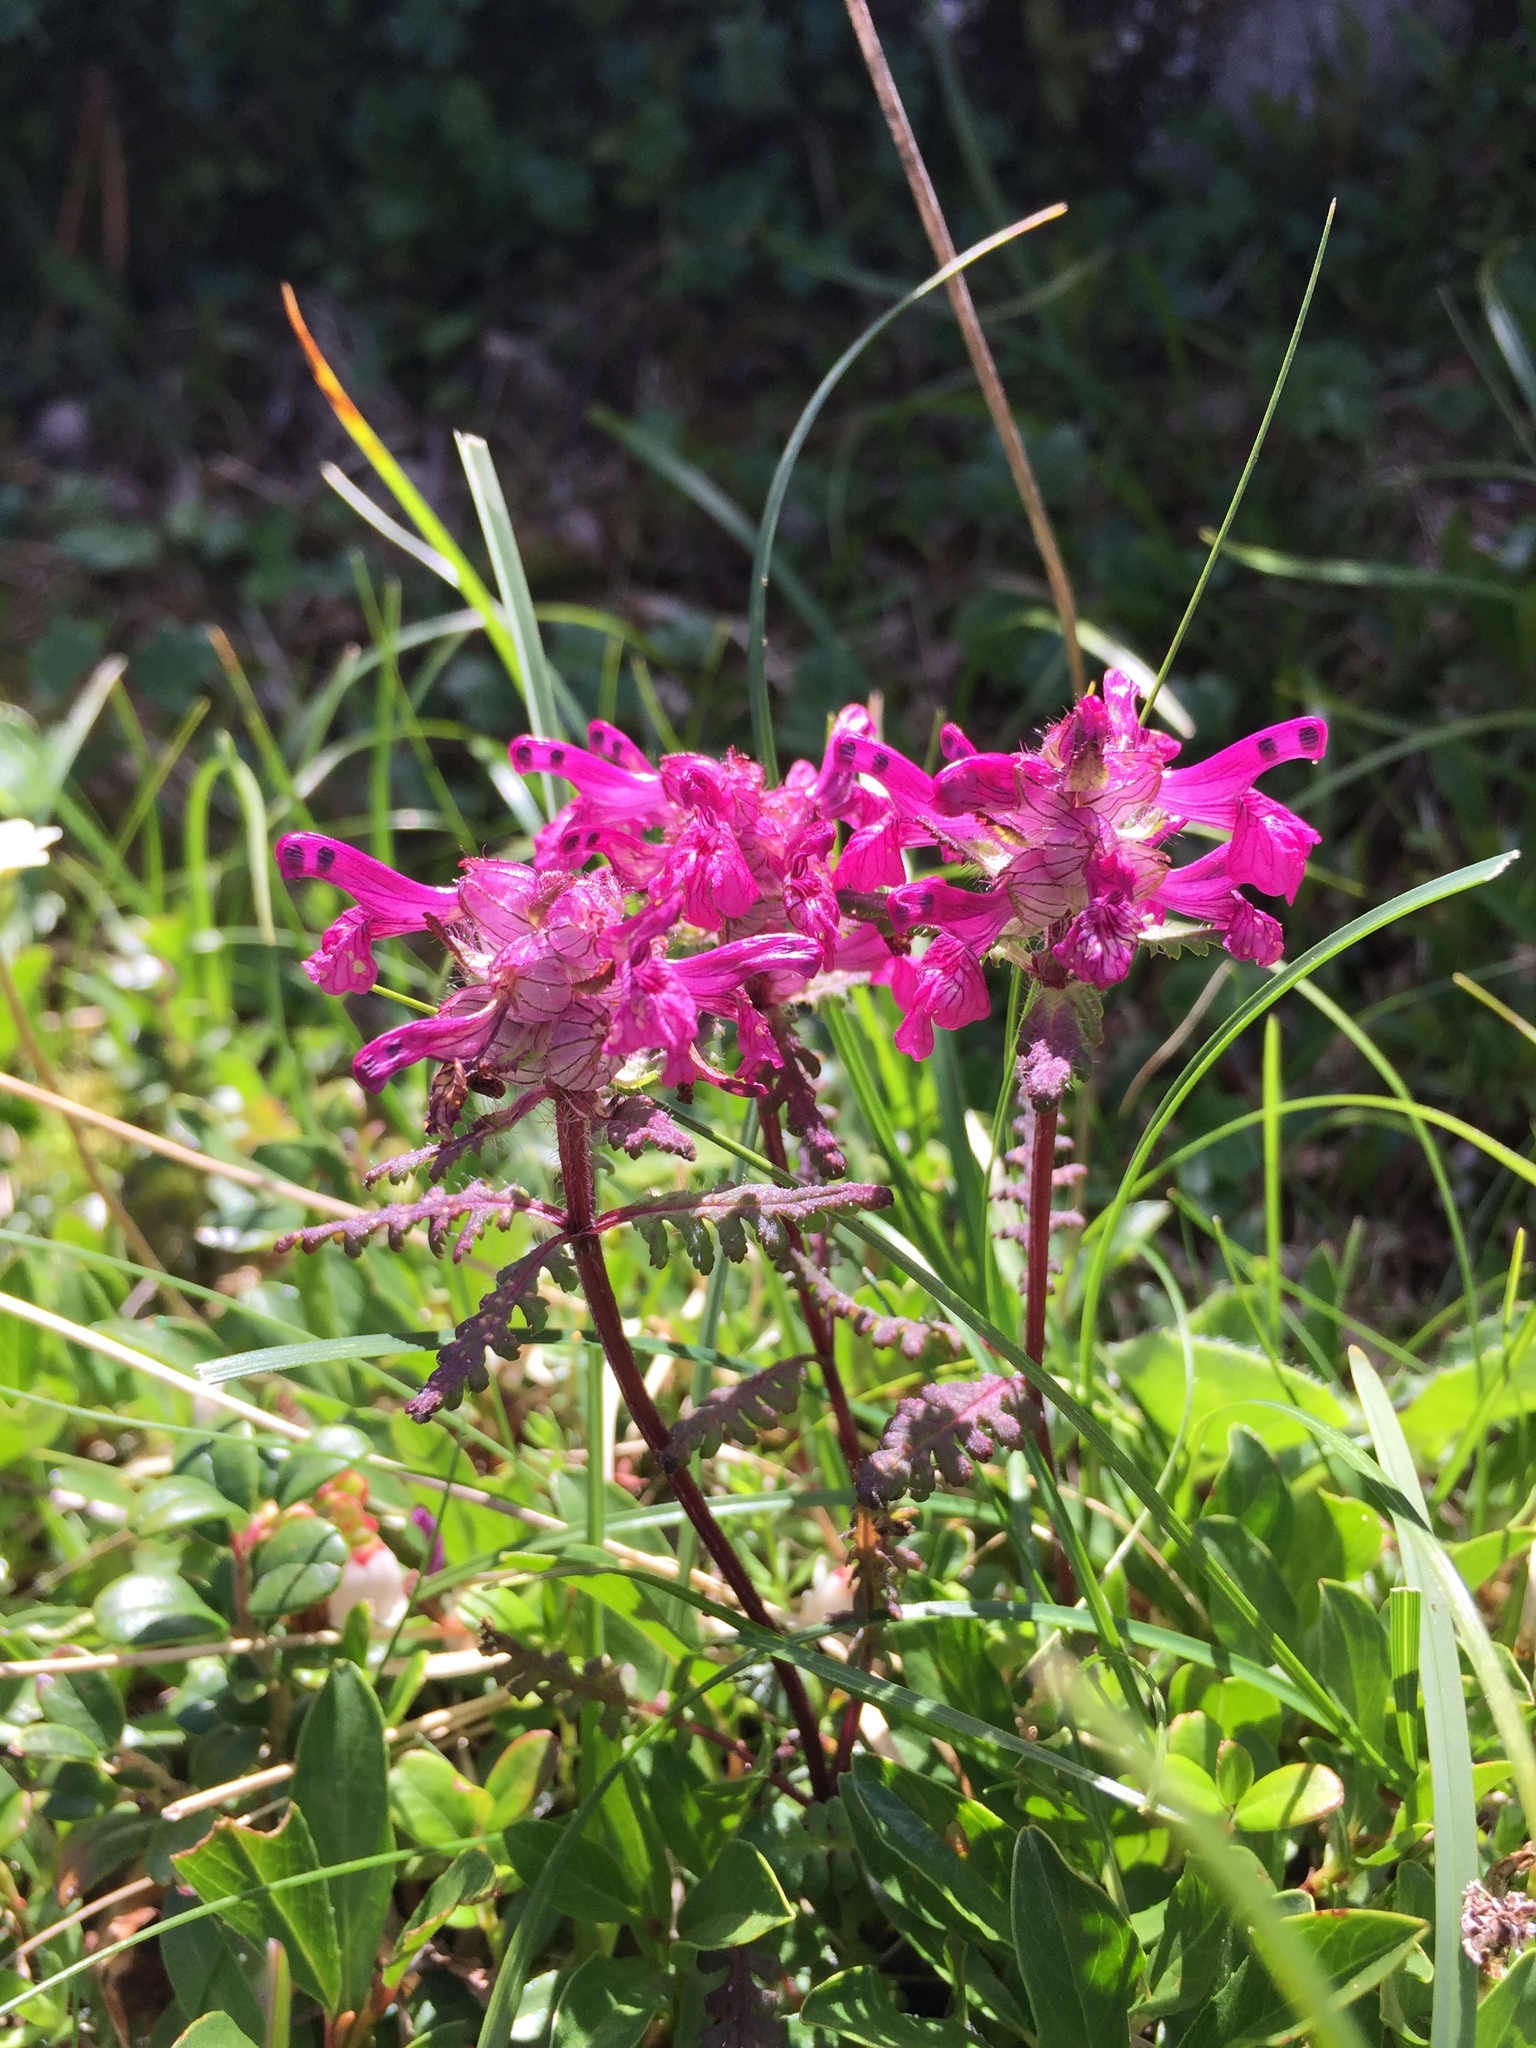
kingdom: Plantae
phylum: Tracheophyta
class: Magnoliopsida
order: Lamiales
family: Orobanchaceae
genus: Pedicularis
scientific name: Pedicularis verticillata
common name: Whorled lousewort
